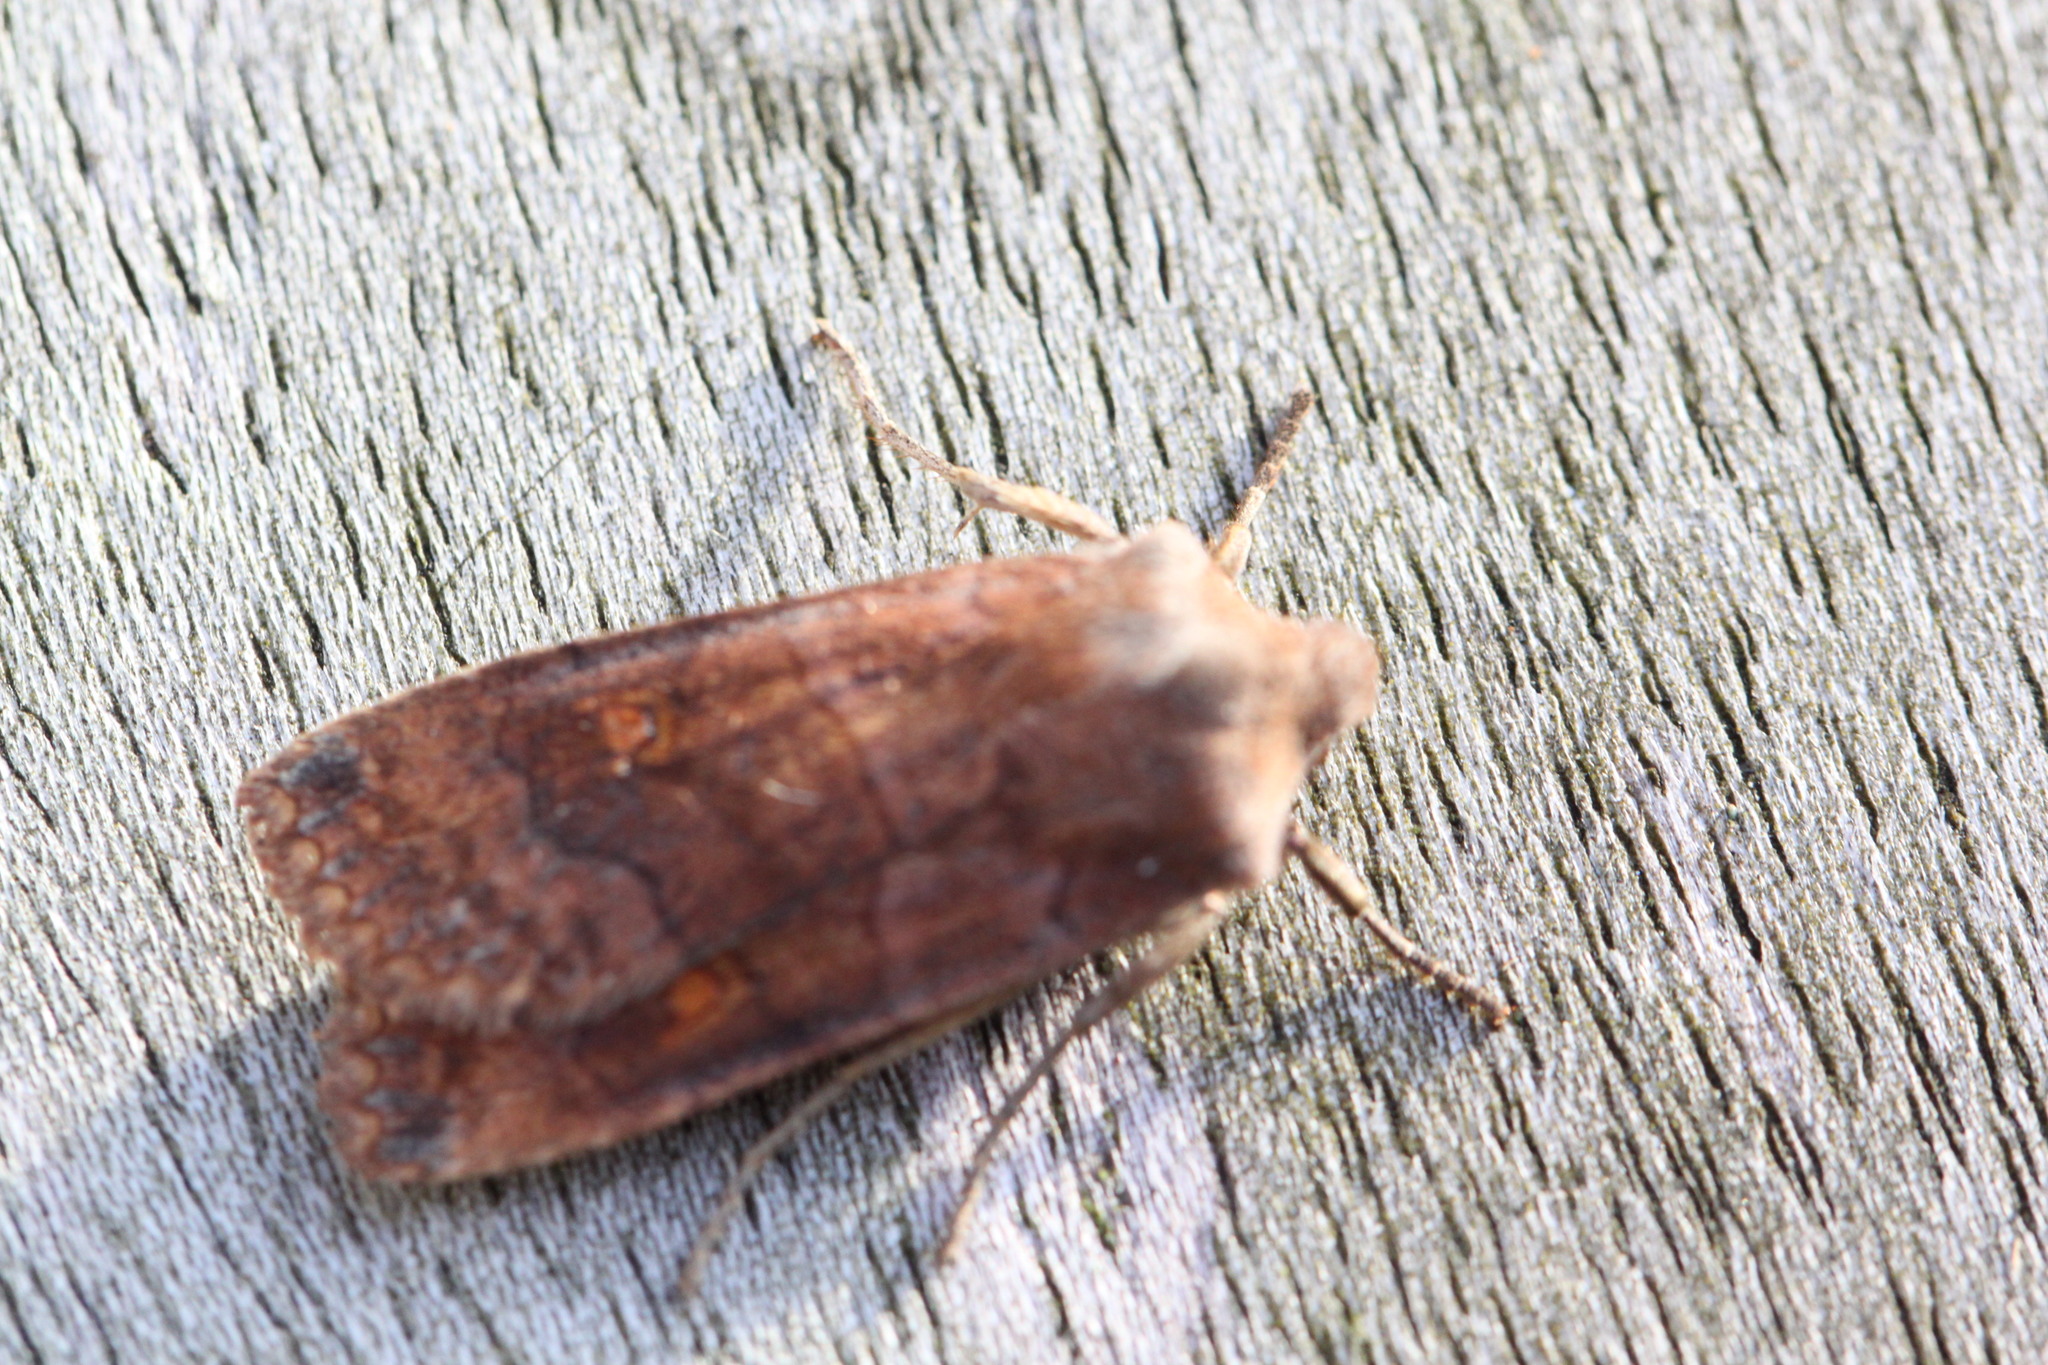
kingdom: Animalia
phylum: Arthropoda
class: Insecta
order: Lepidoptera
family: Noctuidae
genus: Eupsilia
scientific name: Eupsilia transversa
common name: Satellite
